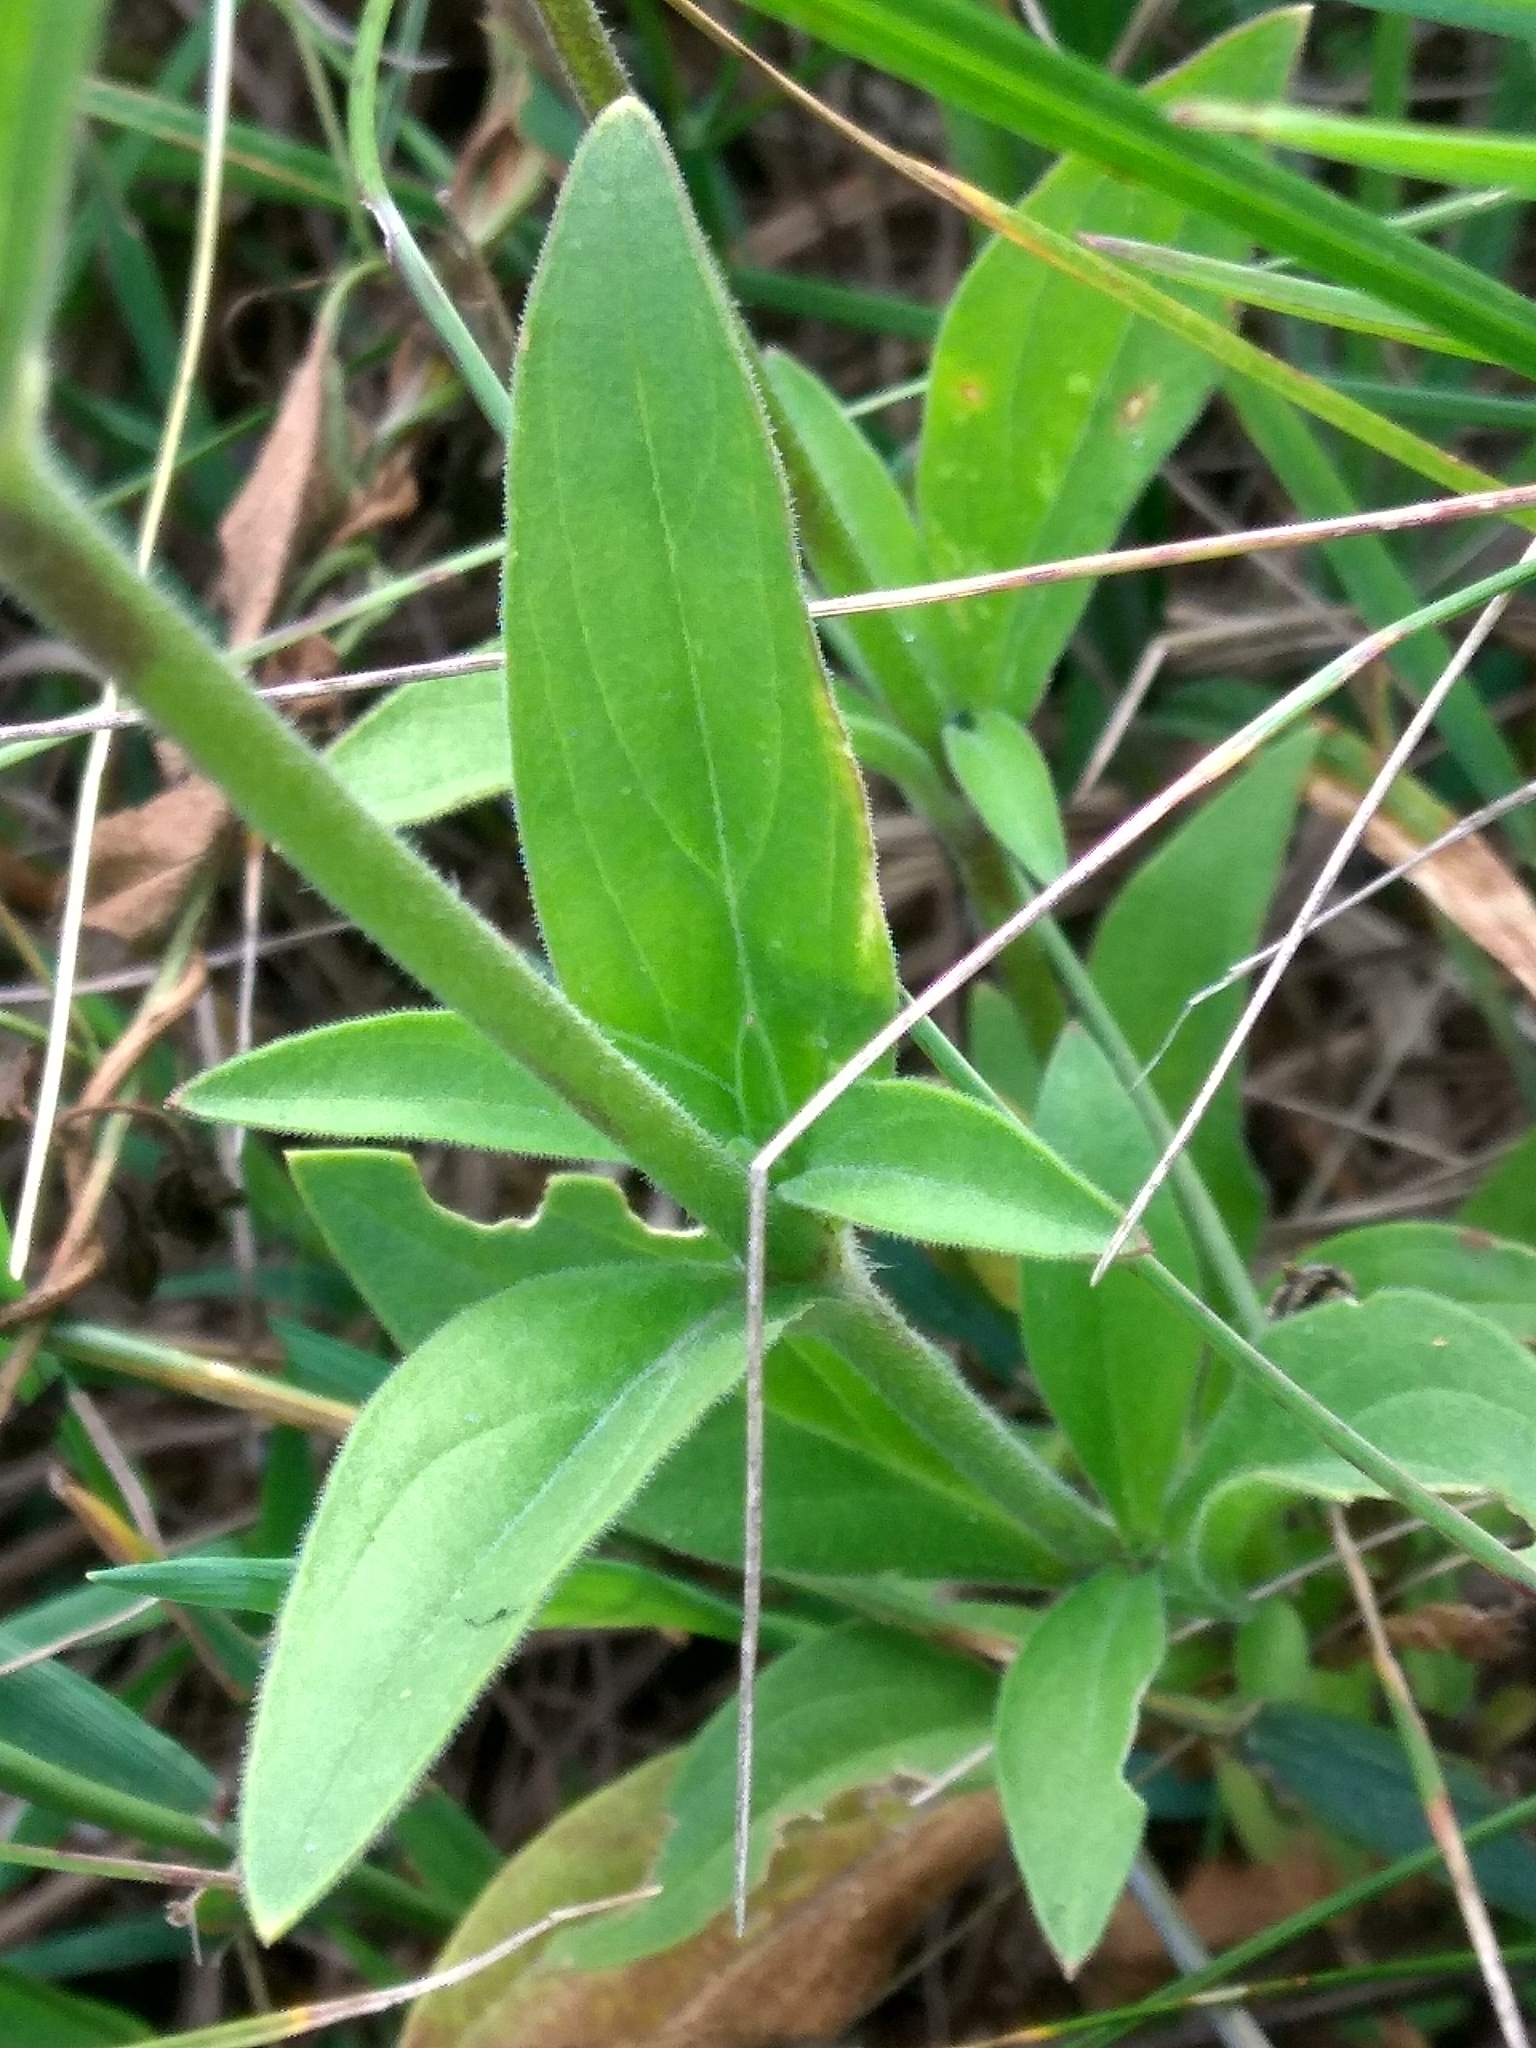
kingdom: Plantae
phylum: Tracheophyta
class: Magnoliopsida
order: Caryophyllales
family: Caryophyllaceae
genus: Silene
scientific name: Silene latifolia
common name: White campion
